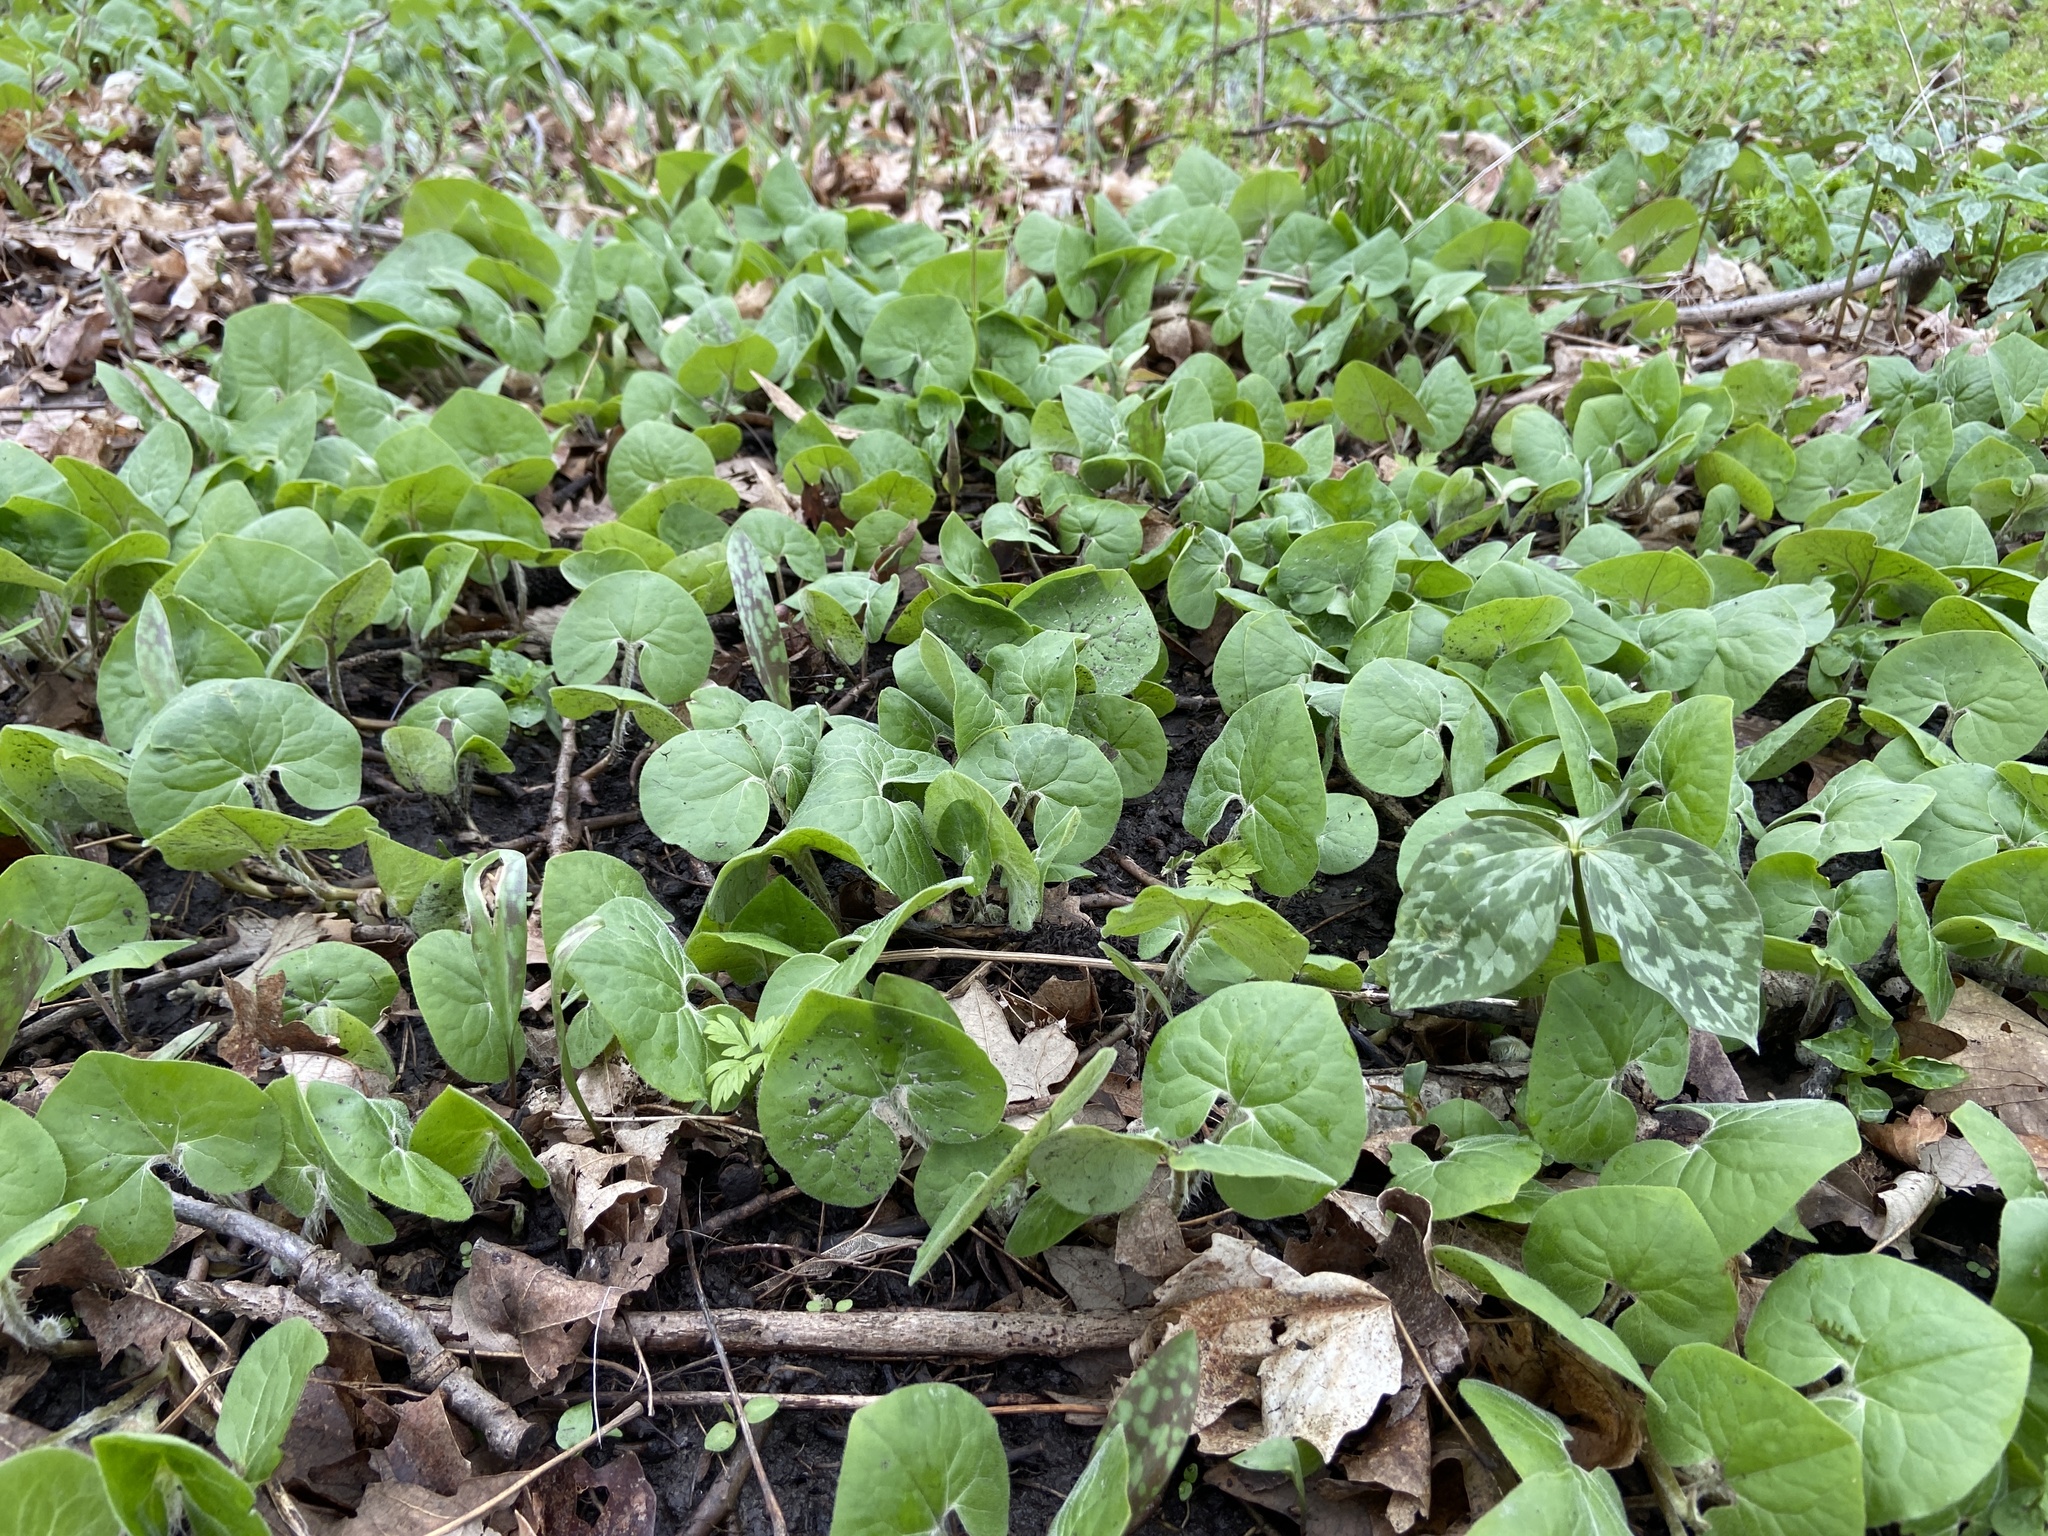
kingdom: Plantae
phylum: Tracheophyta
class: Magnoliopsida
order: Piperales
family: Aristolochiaceae
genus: Asarum
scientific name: Asarum canadense
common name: Wild ginger
